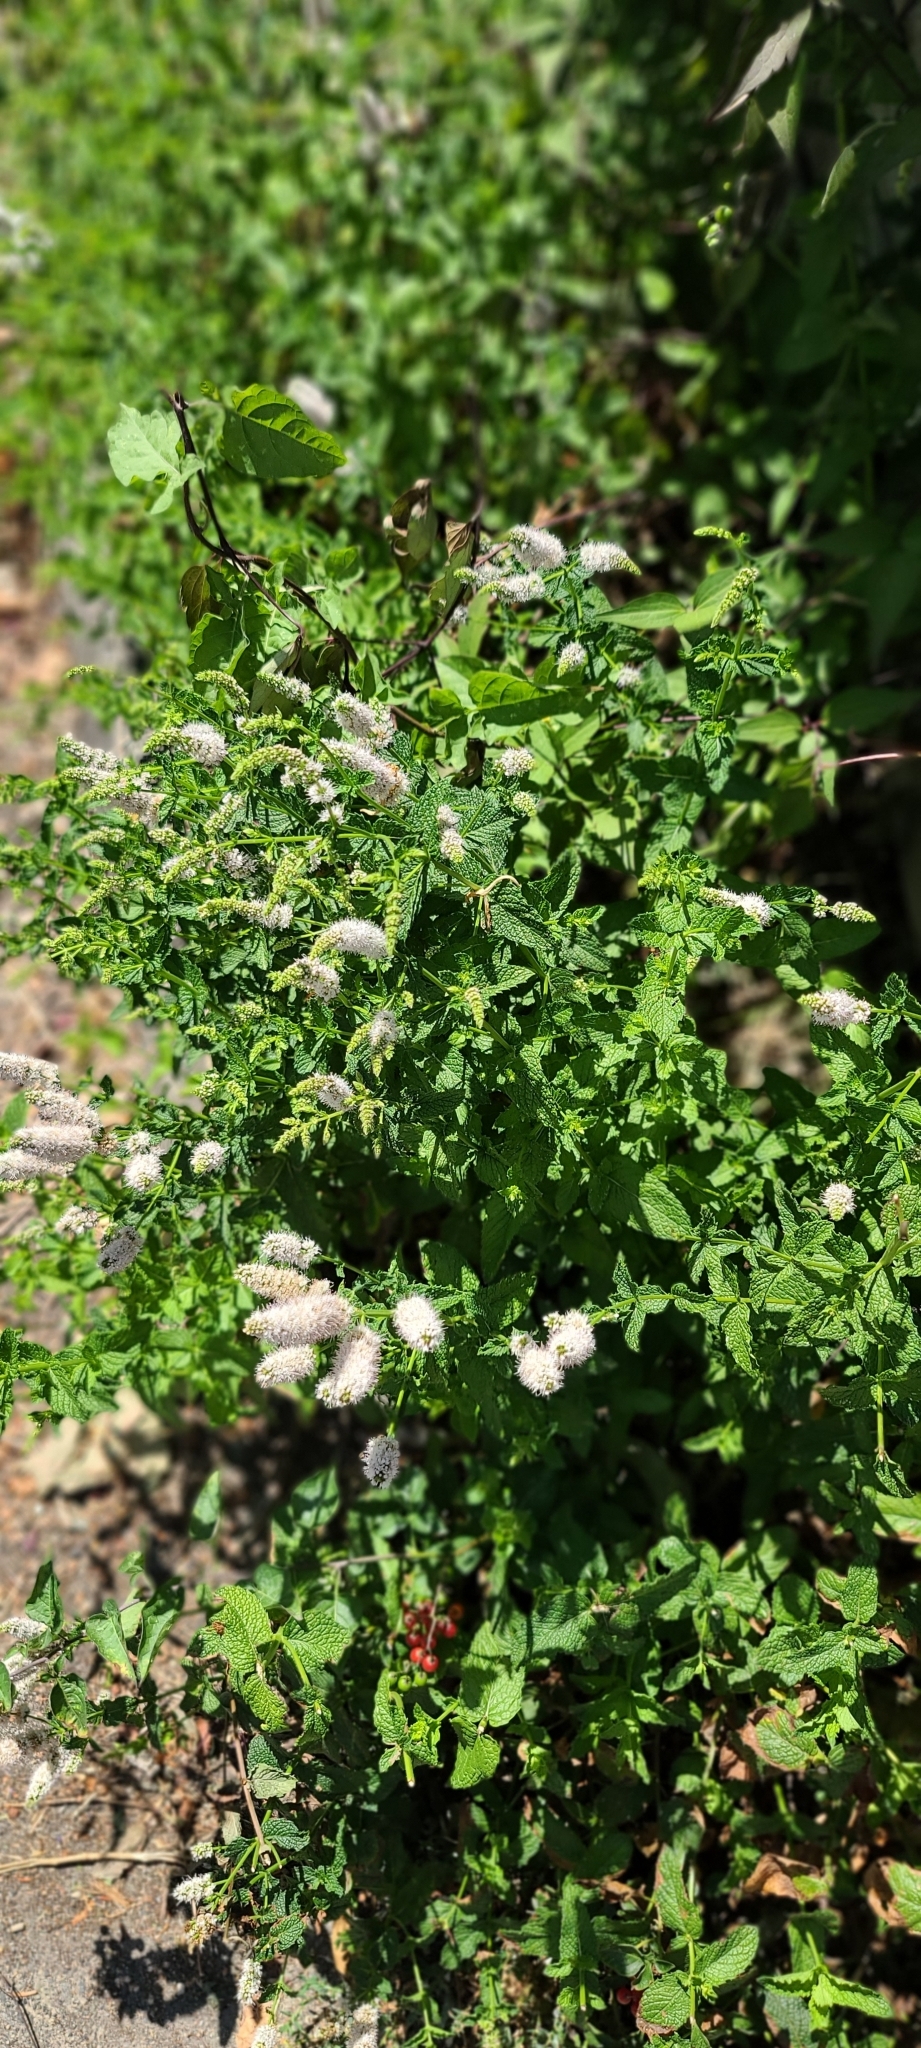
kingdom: Plantae
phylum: Tracheophyta
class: Magnoliopsida
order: Solanales
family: Solanaceae
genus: Solanum
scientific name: Solanum dulcamara
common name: Climbing nightshade
